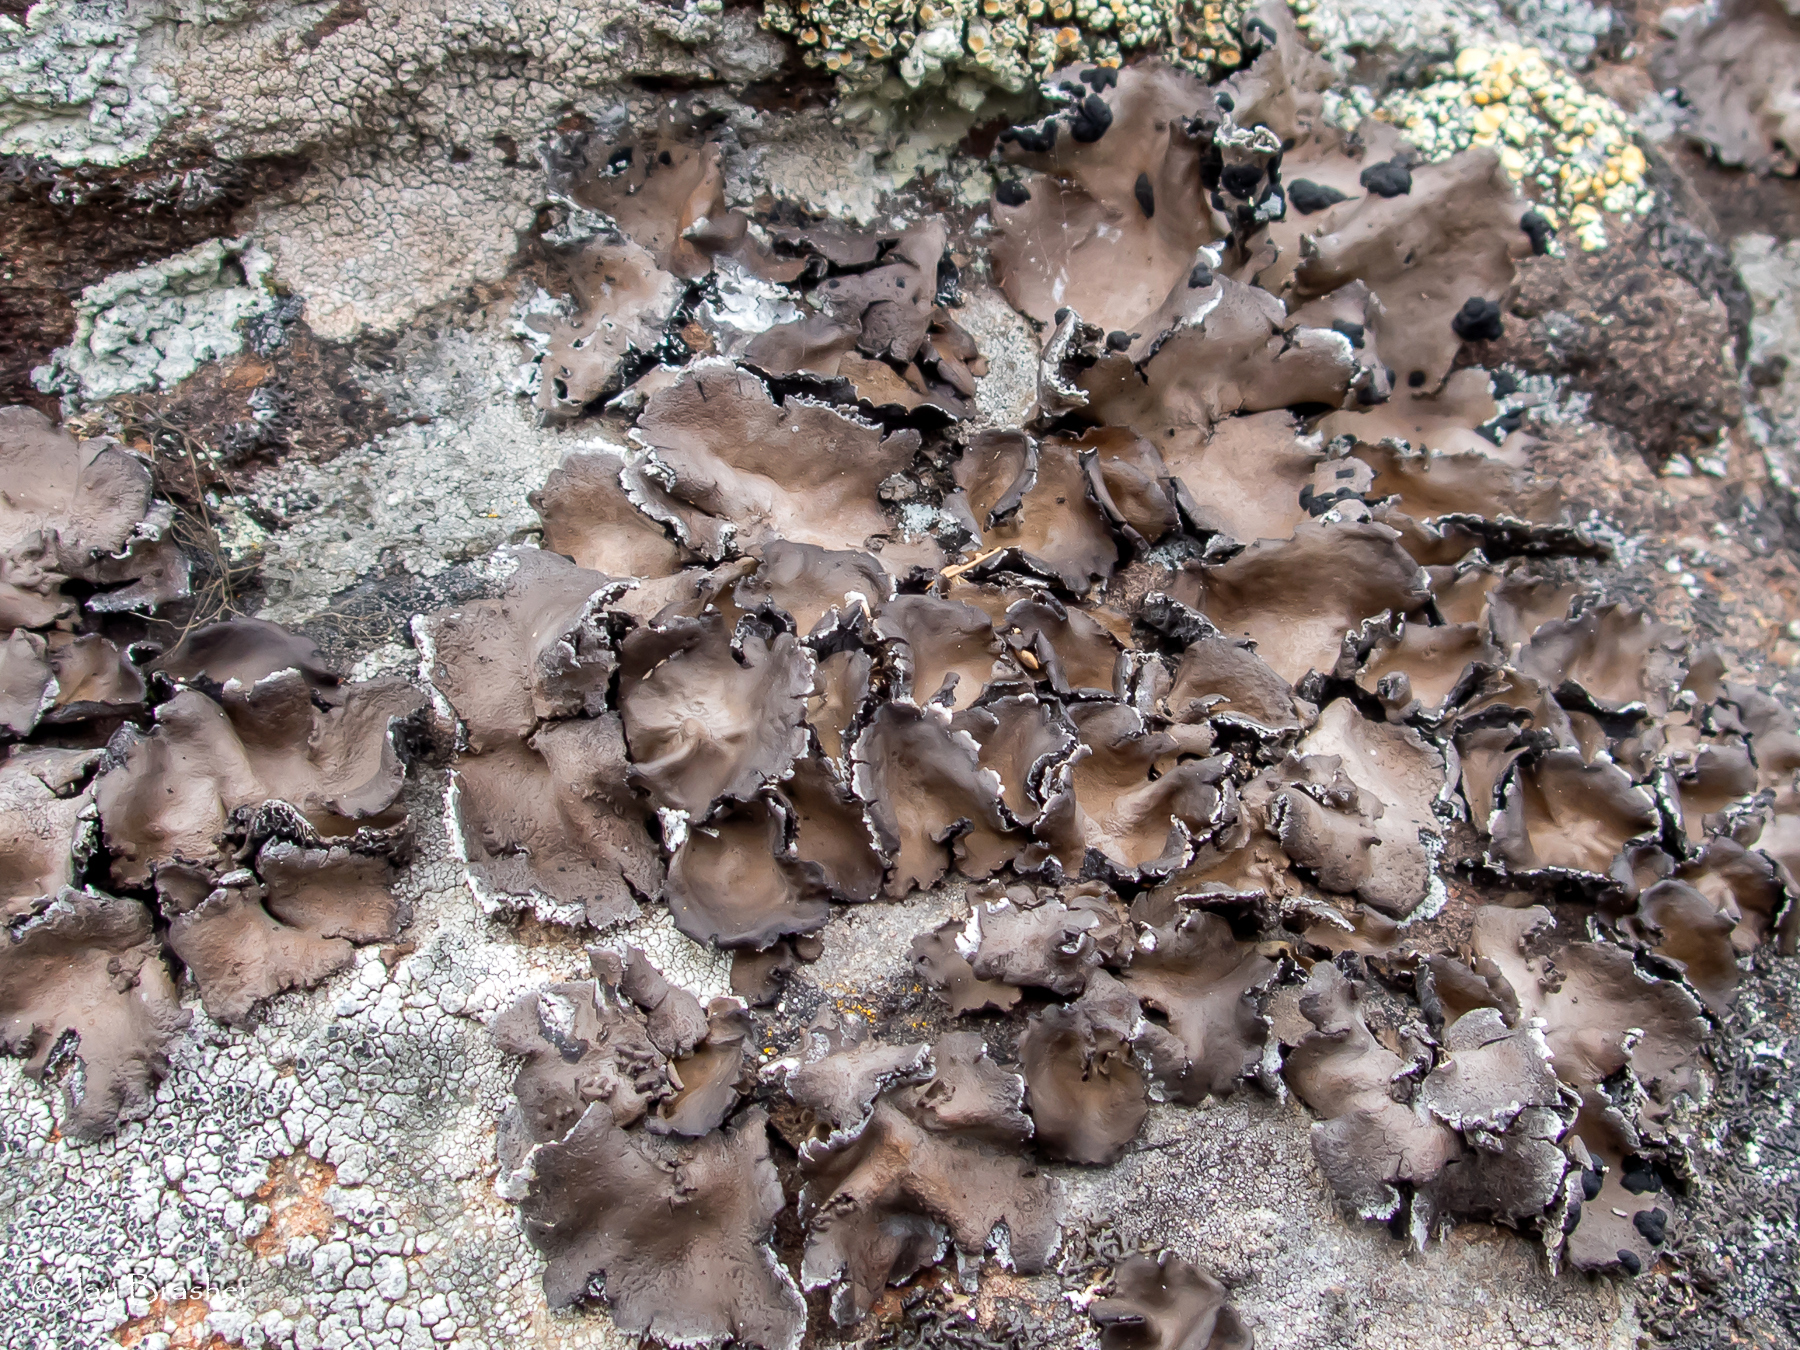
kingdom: Fungi
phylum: Ascomycota
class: Lecanoromycetes
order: Umbilicariales
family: Umbilicariaceae
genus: Umbilicaria
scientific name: Umbilicaria muhlenbergii
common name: Lesser rocktripe
